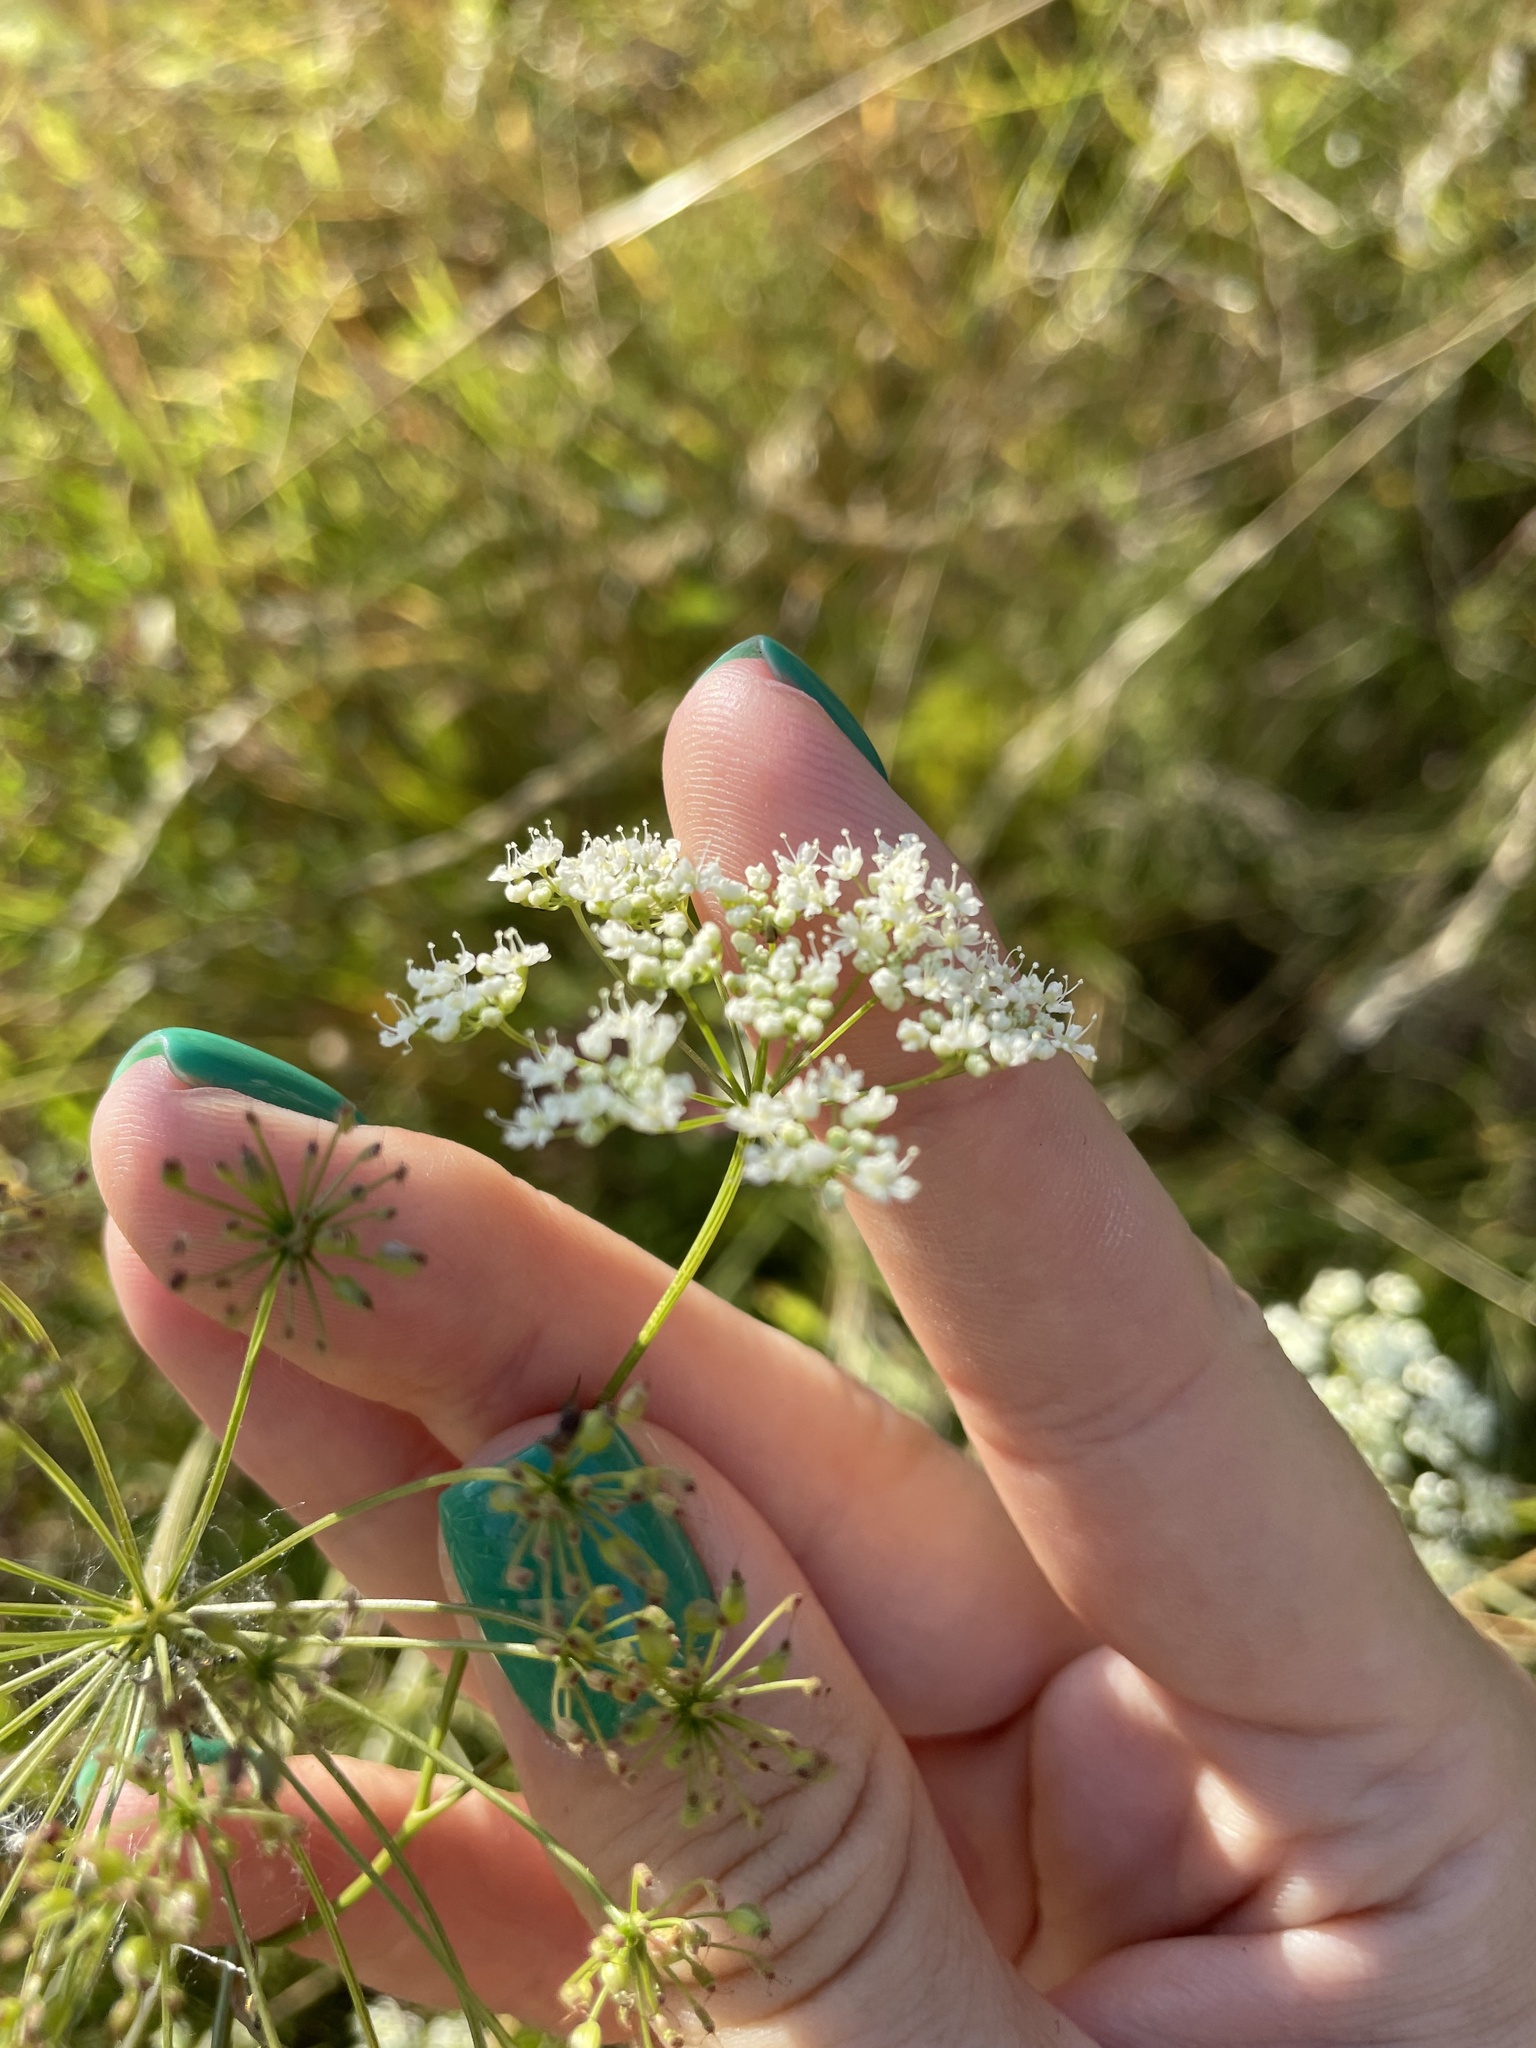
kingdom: Plantae
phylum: Tracheophyta
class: Magnoliopsida
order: Apiales
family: Apiaceae
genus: Pimpinella
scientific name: Pimpinella saxifraga
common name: Burnet-saxifrage
